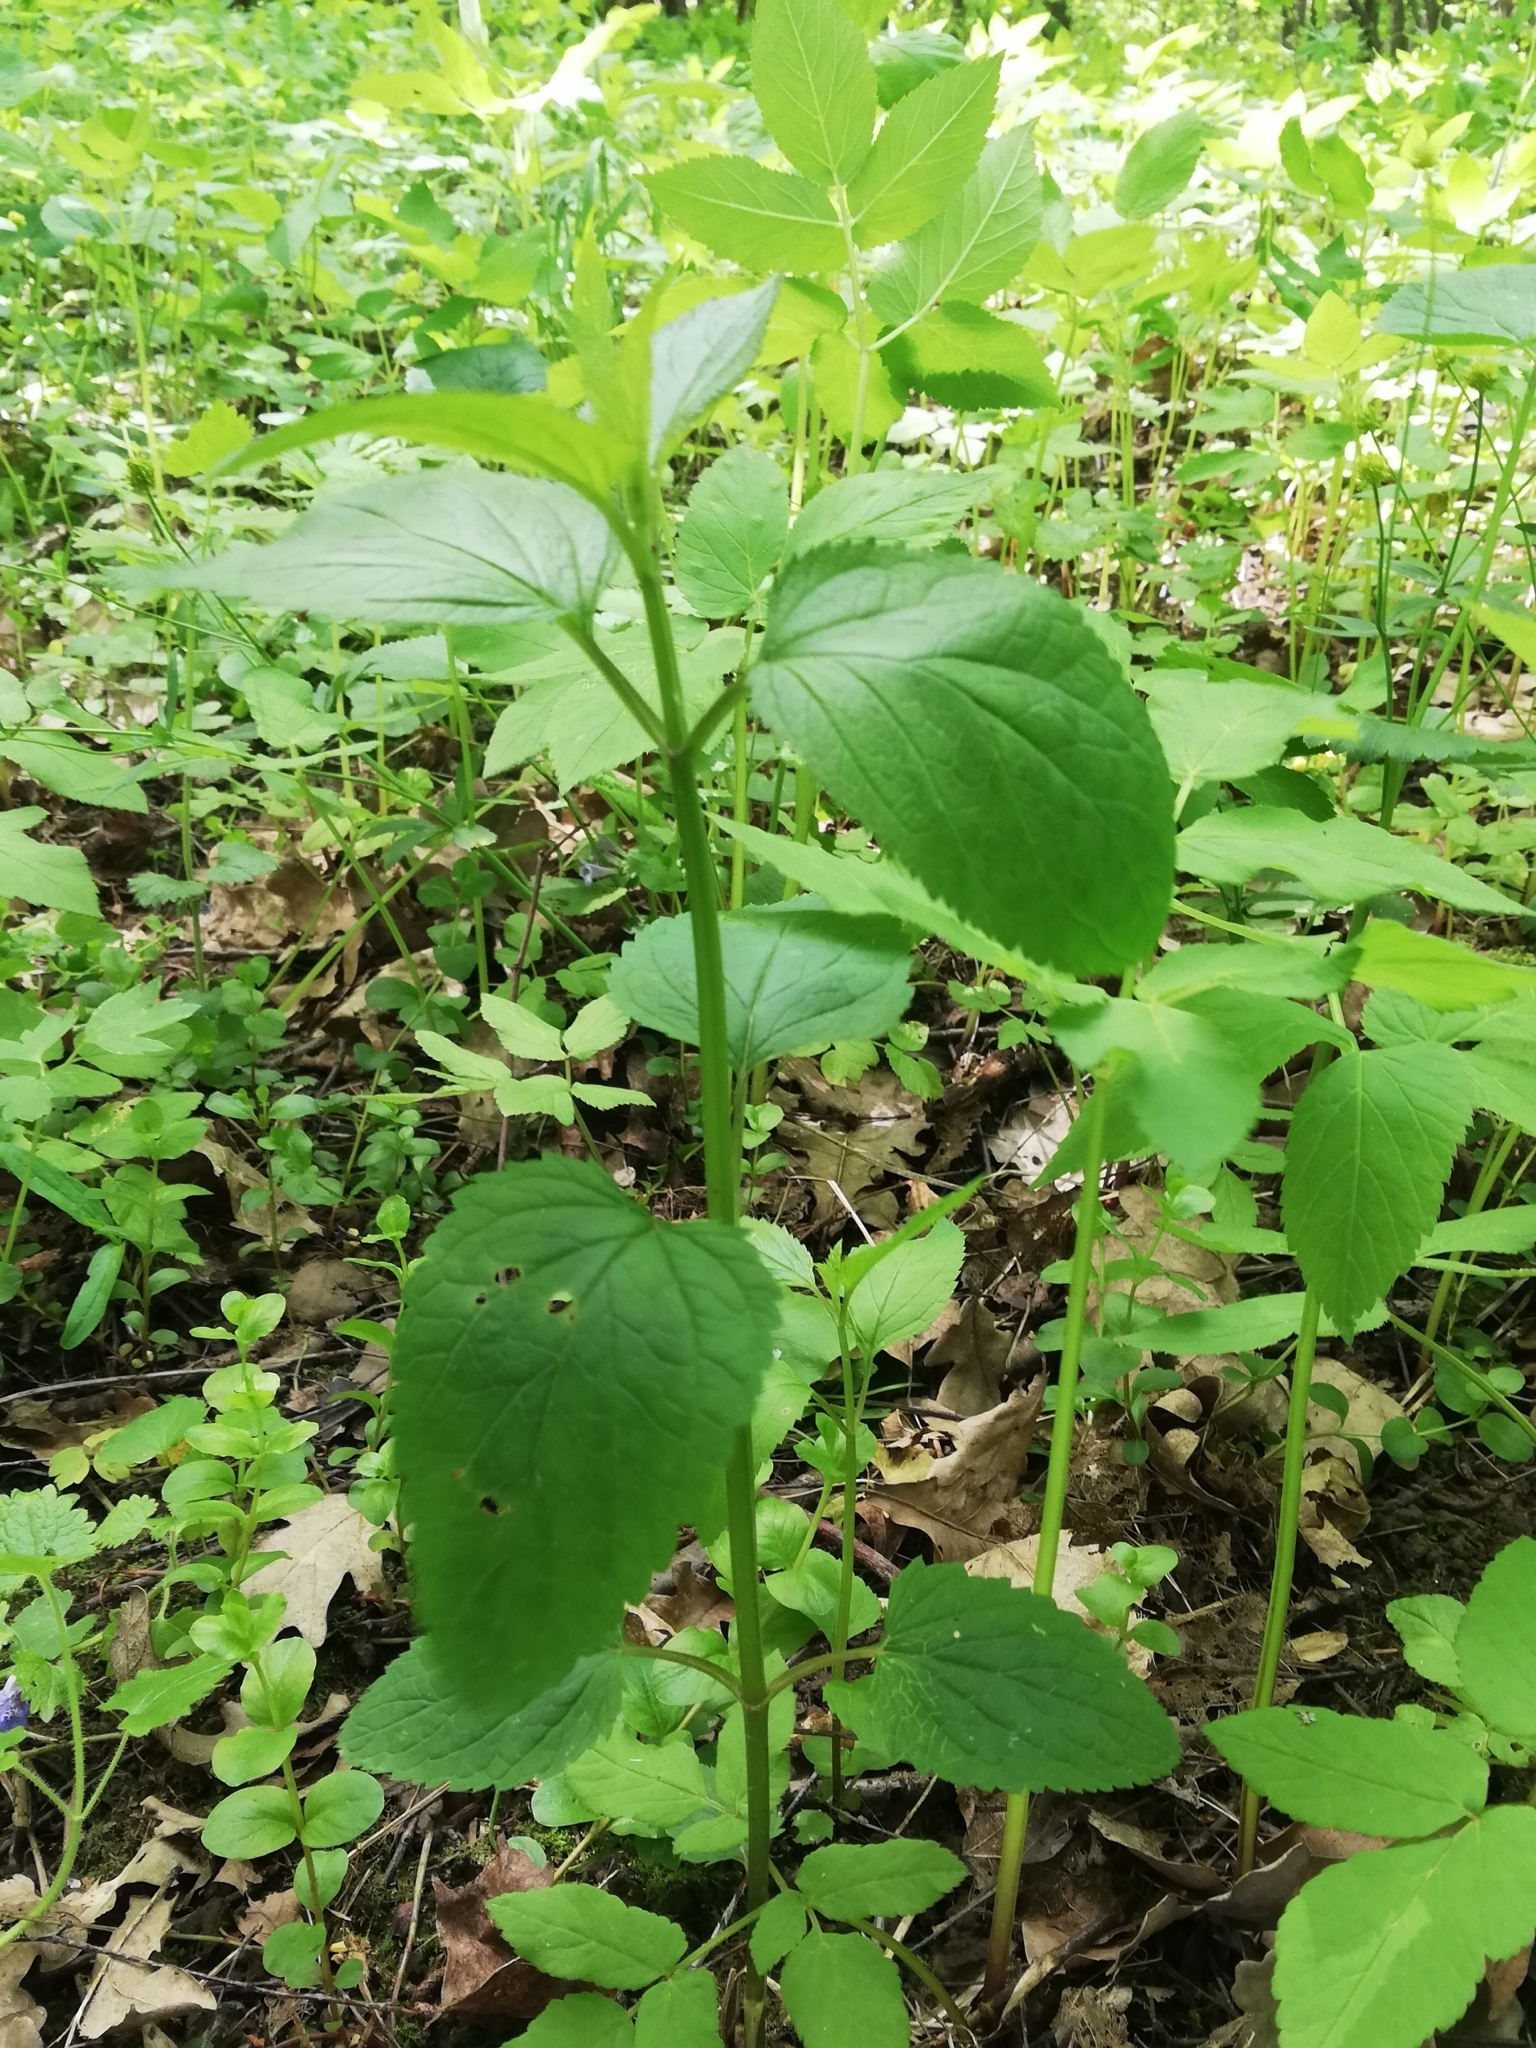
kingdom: Plantae
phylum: Tracheophyta
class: Magnoliopsida
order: Lamiales
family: Scrophulariaceae
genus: Scrophularia
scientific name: Scrophularia nodosa
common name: Common figwort
